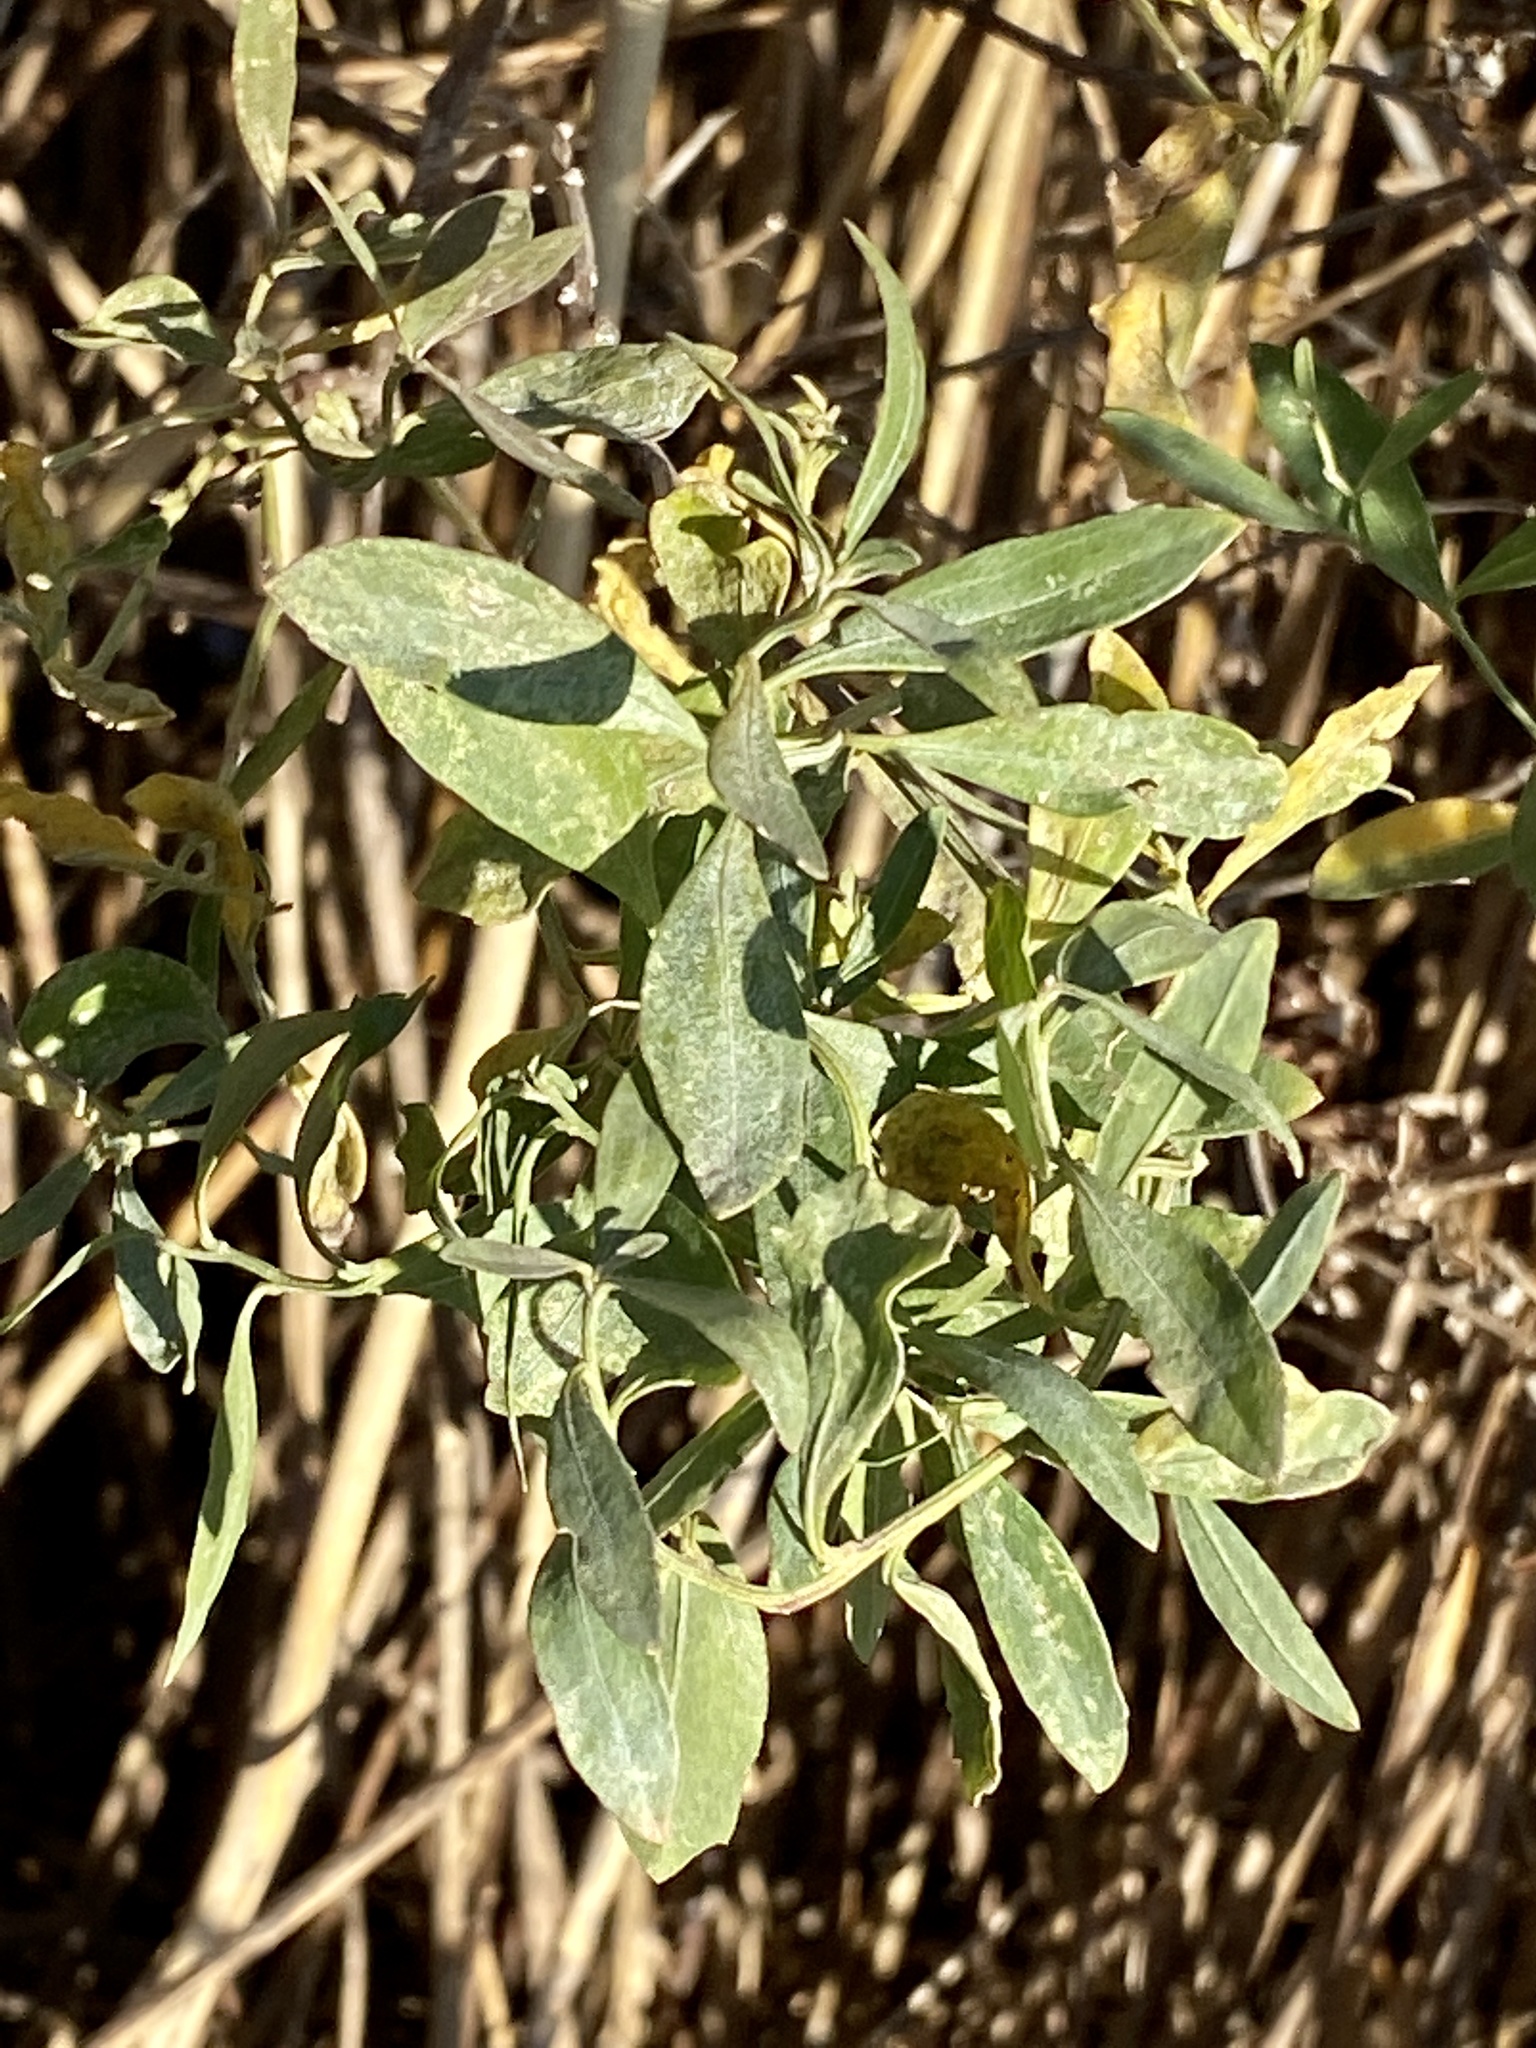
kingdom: Plantae
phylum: Tracheophyta
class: Magnoliopsida
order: Asterales
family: Asteraceae
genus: Baccharis
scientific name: Baccharis halimifolia
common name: Eastern baccharis
